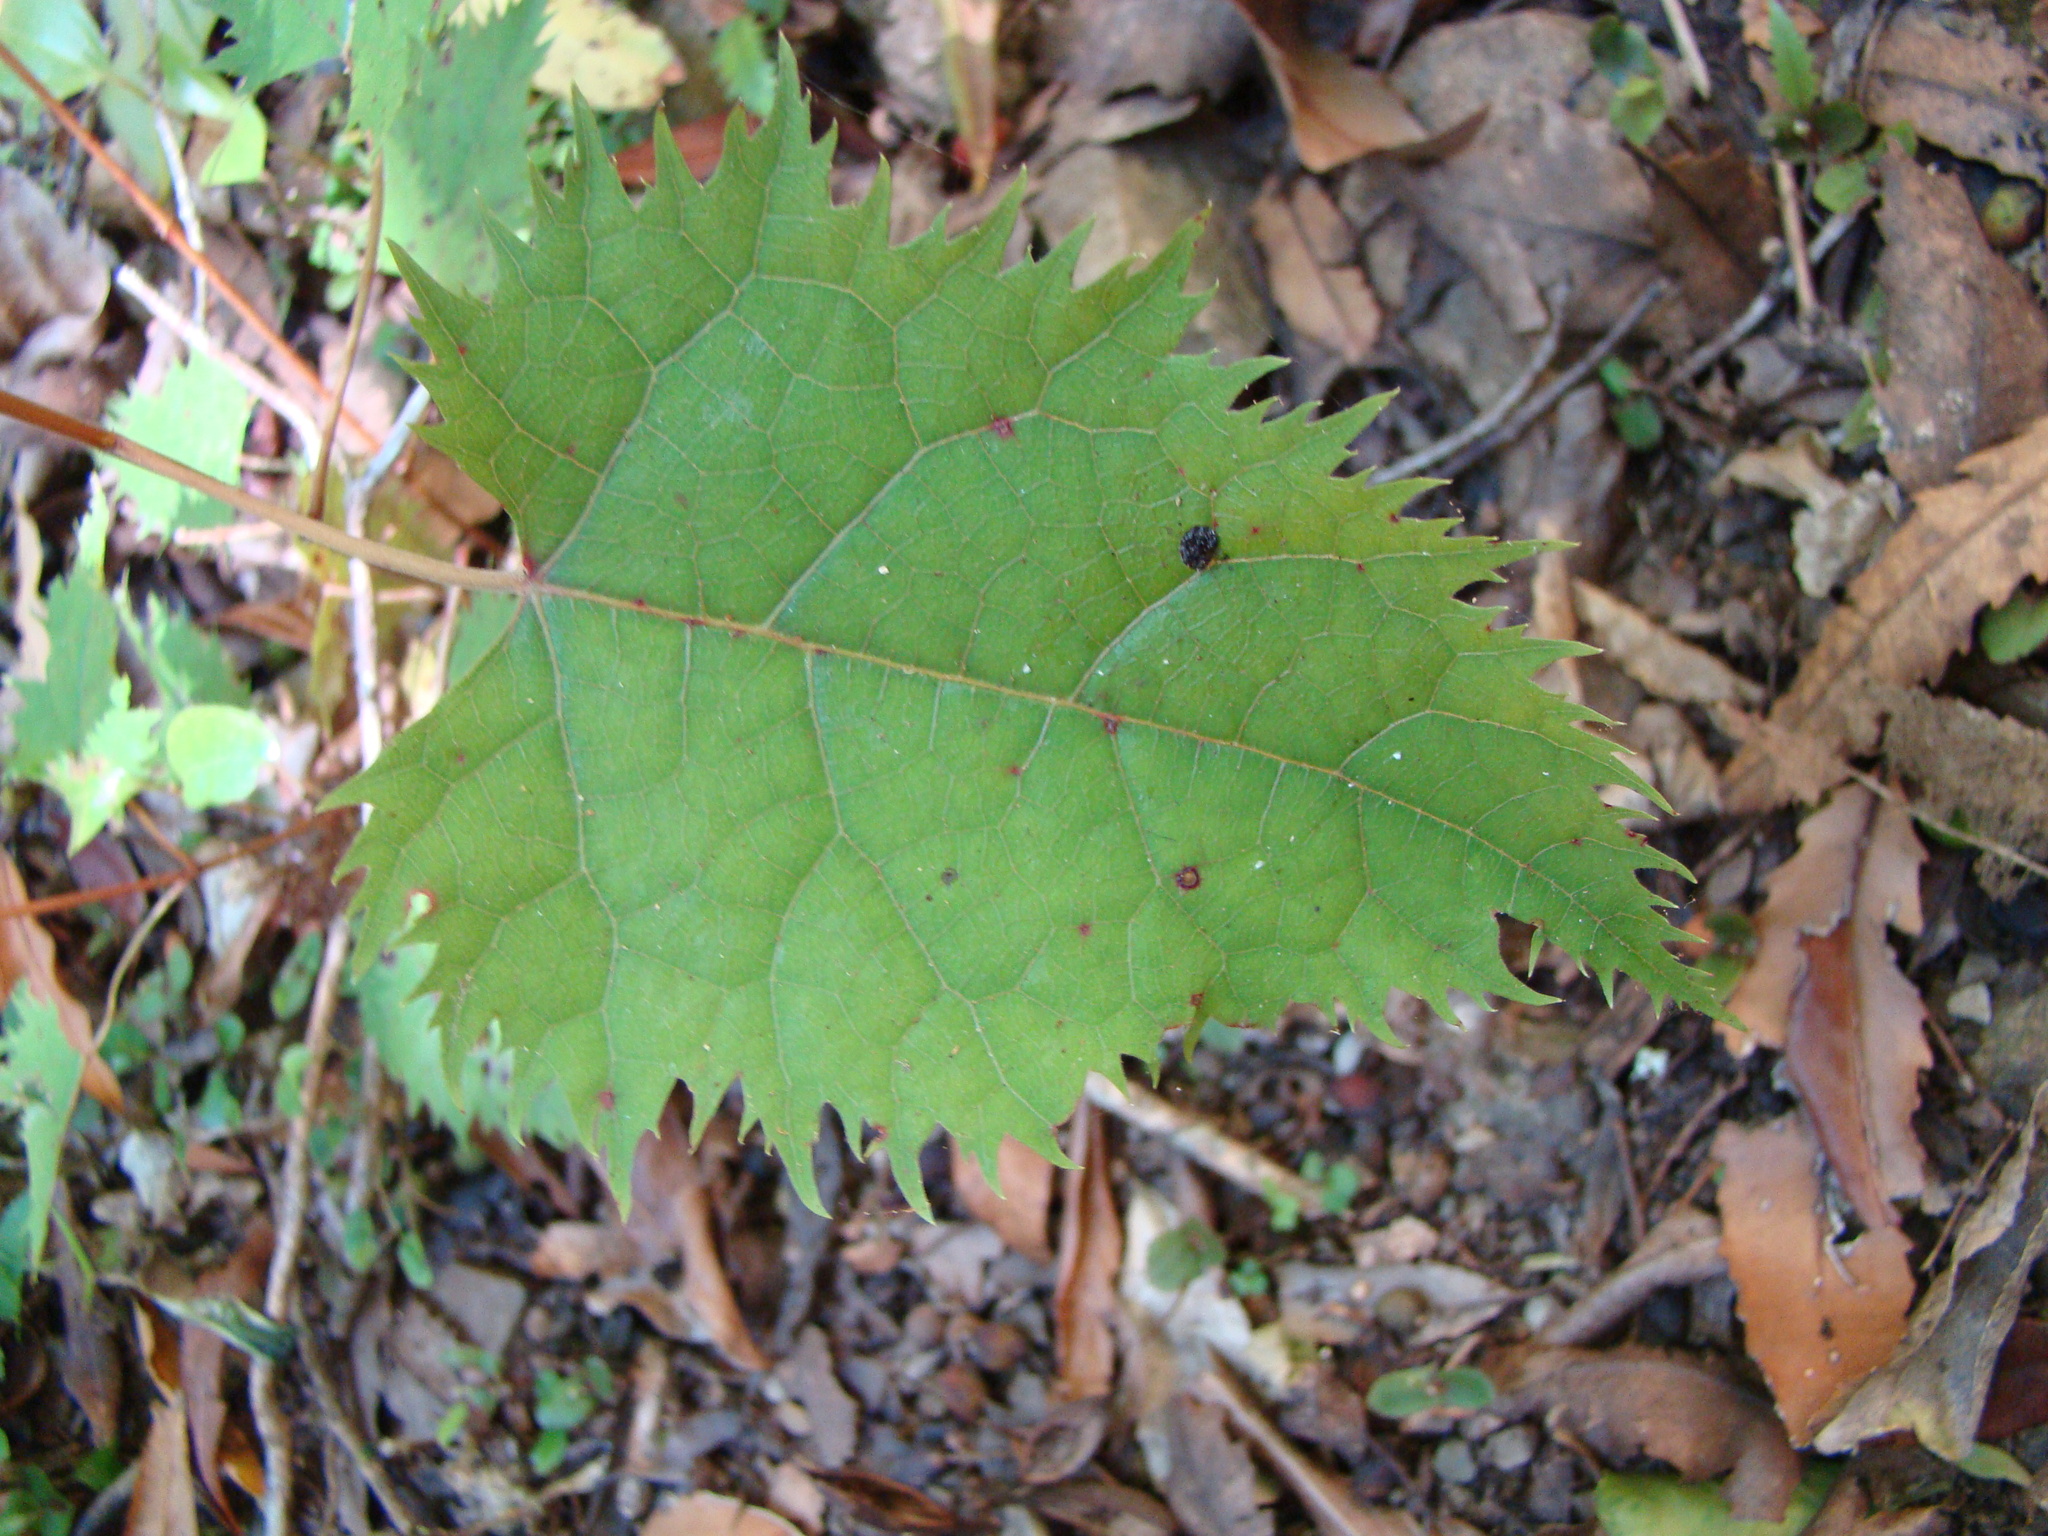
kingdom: Plantae
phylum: Tracheophyta
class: Magnoliopsida
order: Oxalidales
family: Elaeocarpaceae
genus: Aristotelia
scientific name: Aristotelia serrata
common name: New zealand wineberry
